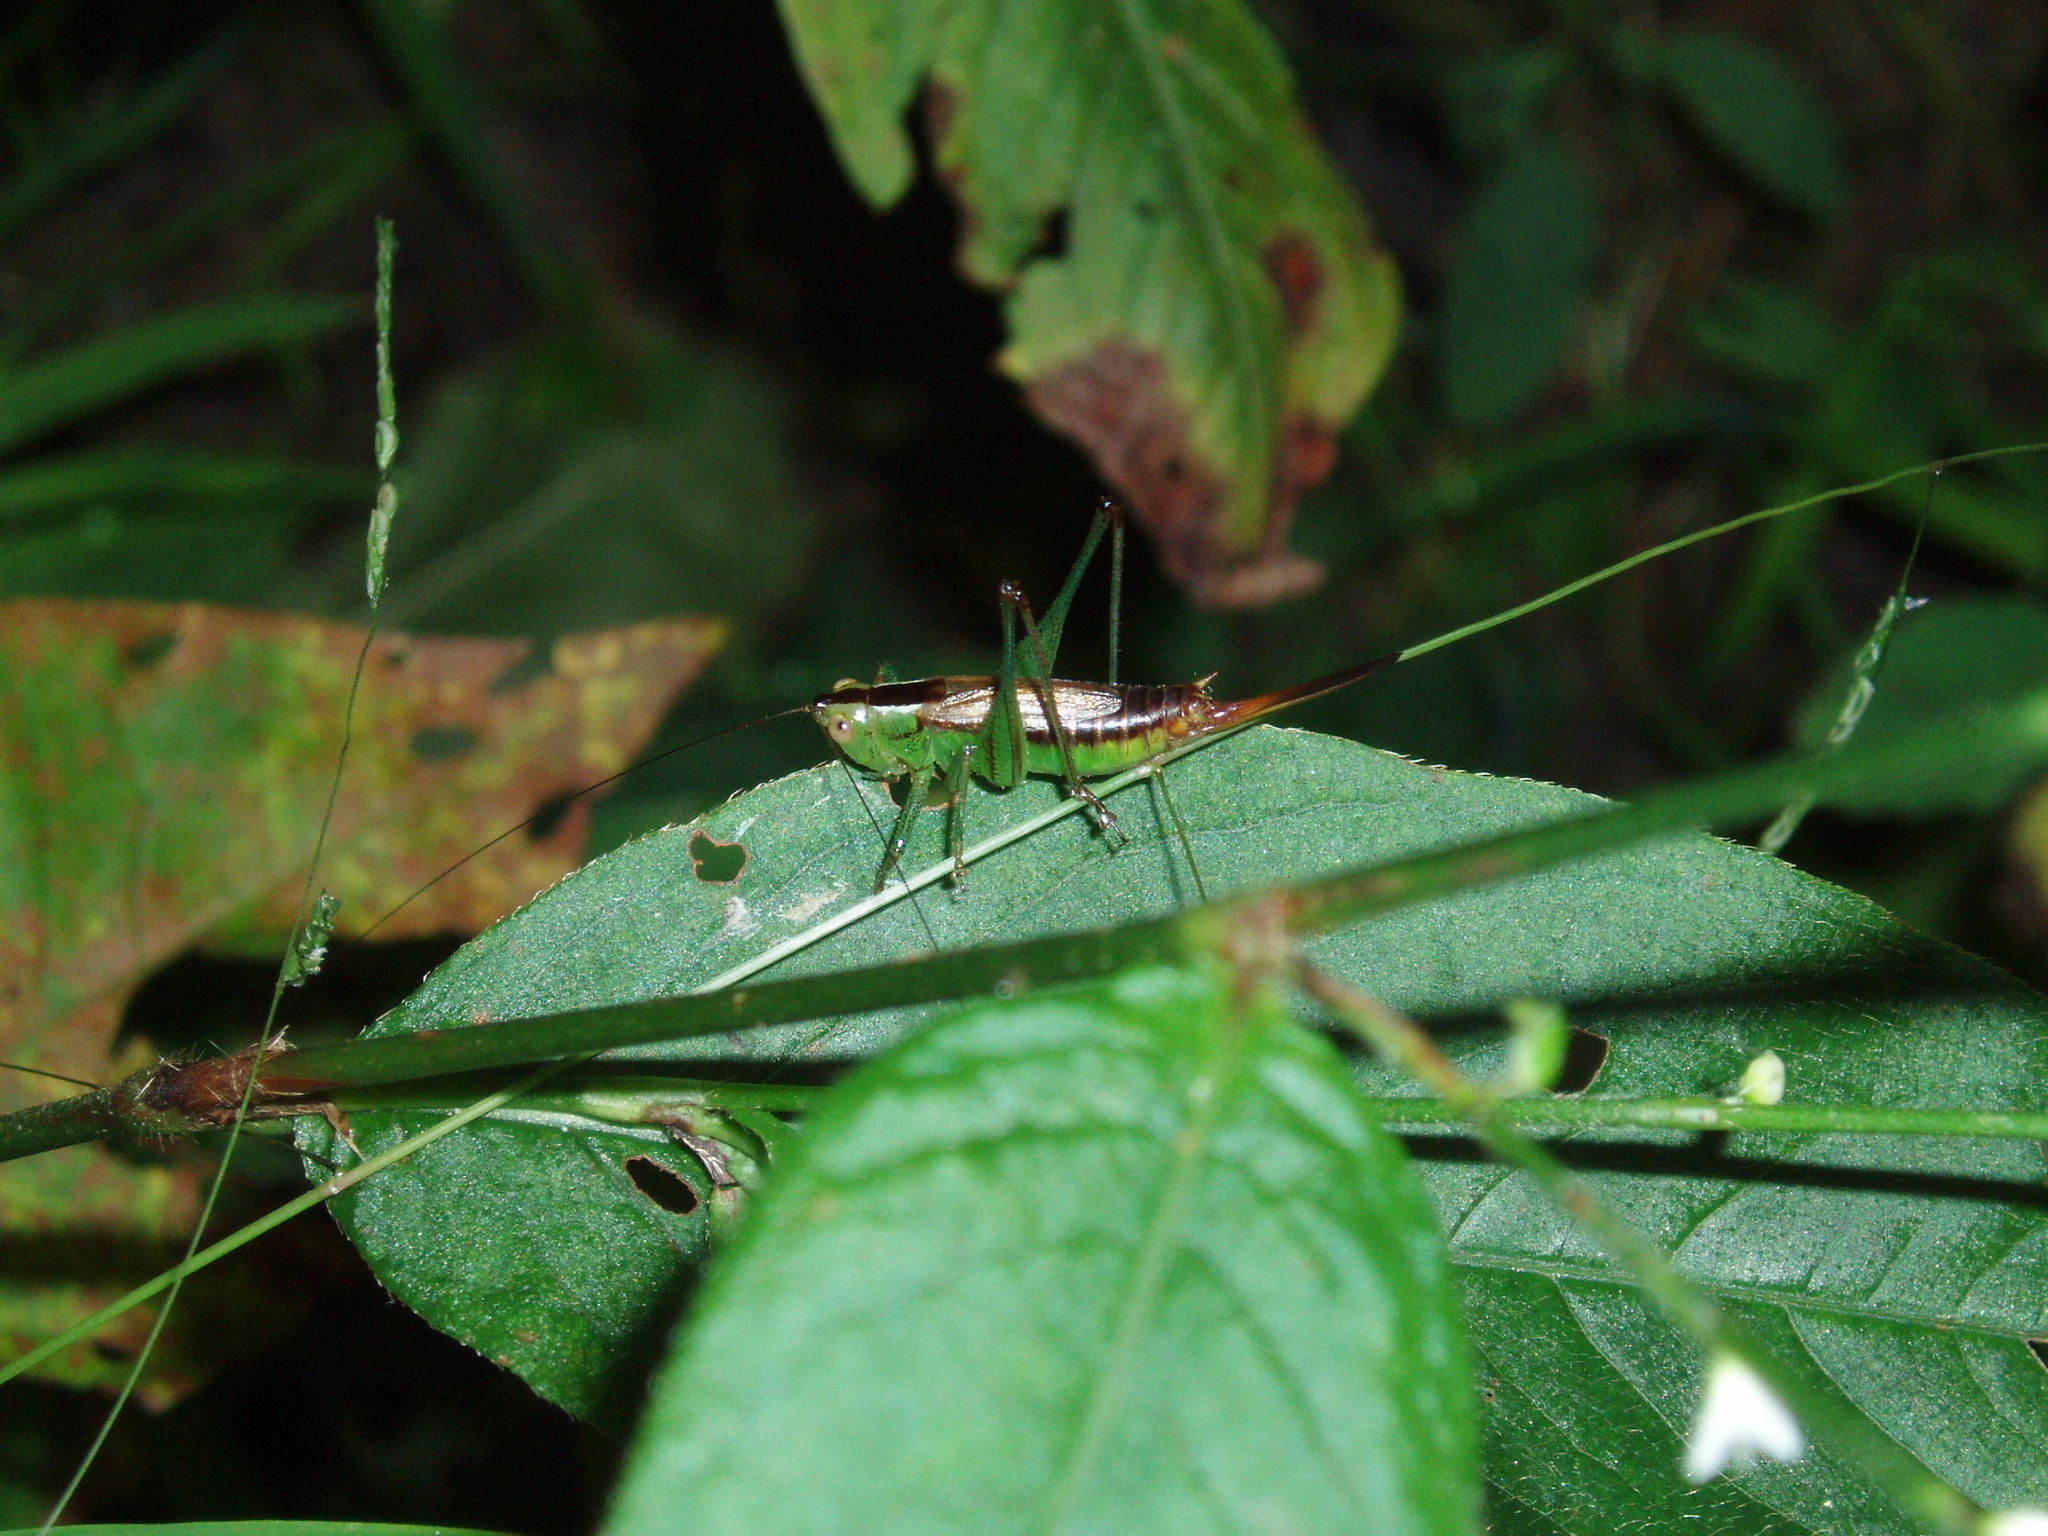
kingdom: Animalia
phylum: Arthropoda
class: Insecta
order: Orthoptera
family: Tettigoniidae
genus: Conocephalus
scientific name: Conocephalus brevipennis
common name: Short-winged meadow katydid
